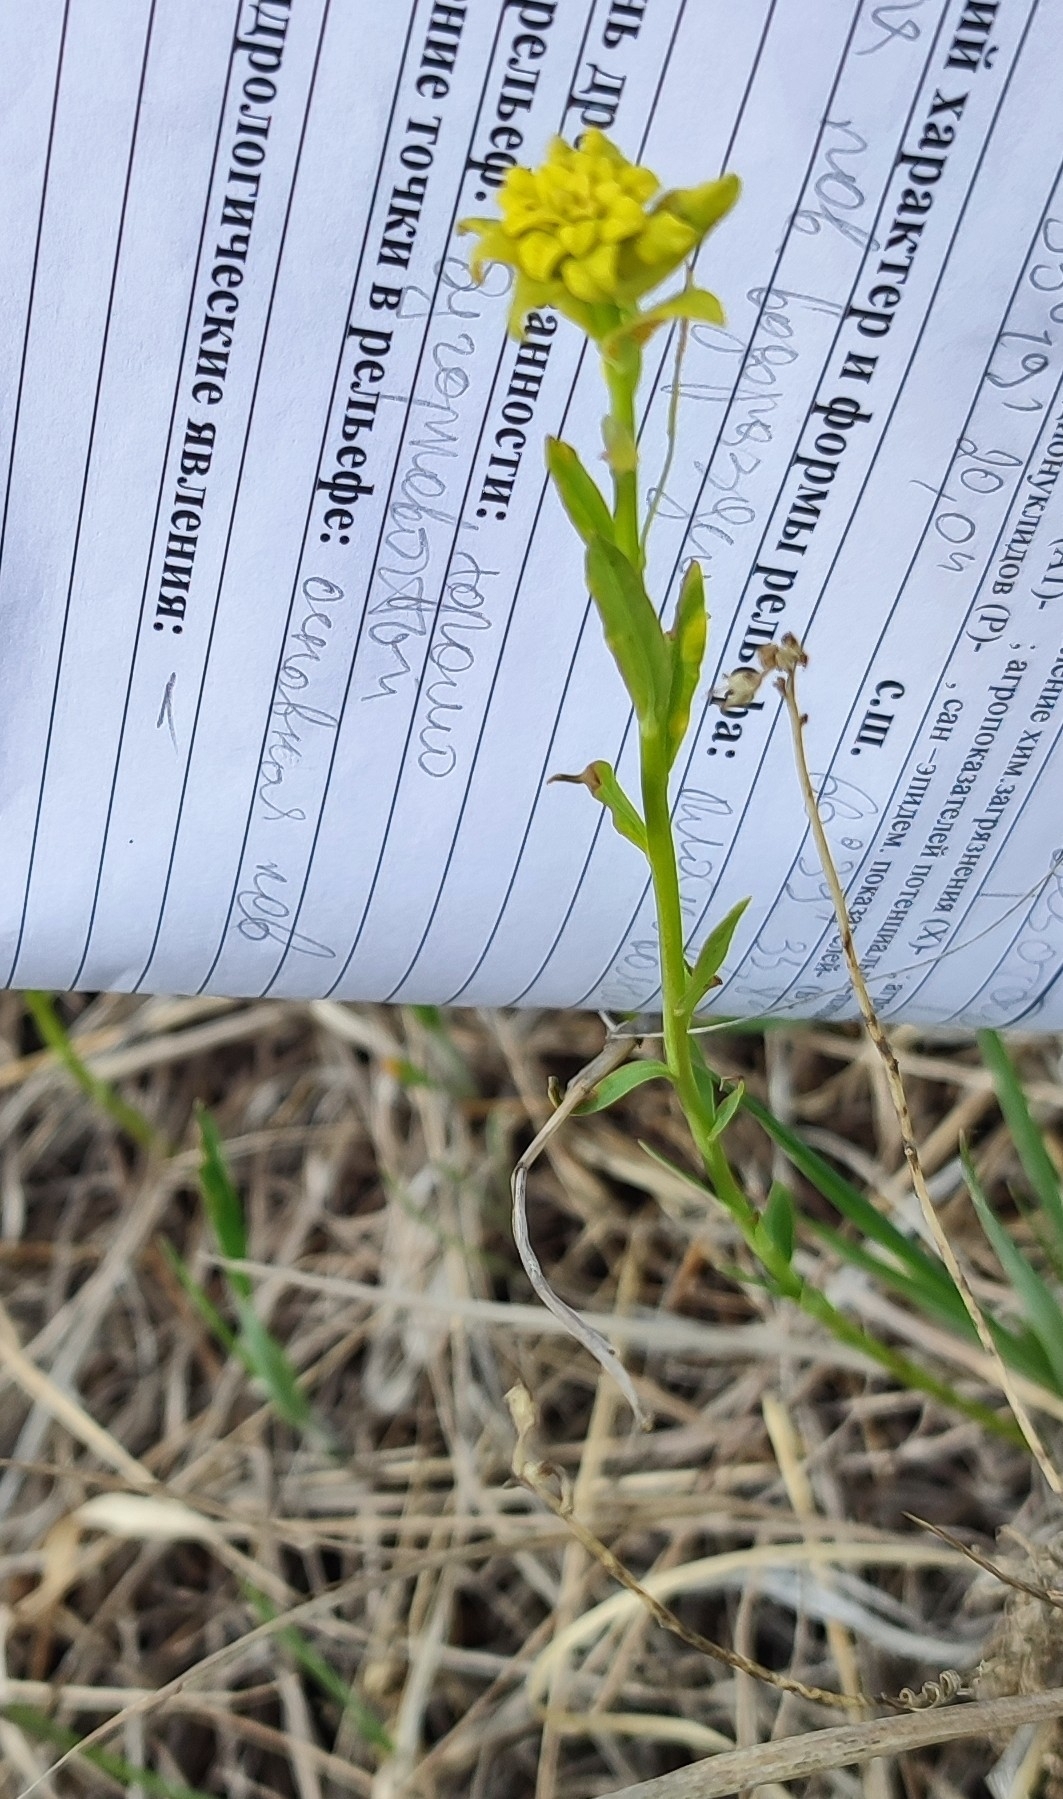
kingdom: Plantae
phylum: Tracheophyta
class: Magnoliopsida
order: Malpighiales
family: Euphorbiaceae
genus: Euphorbia
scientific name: Euphorbia virgata
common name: Leafy spurge
